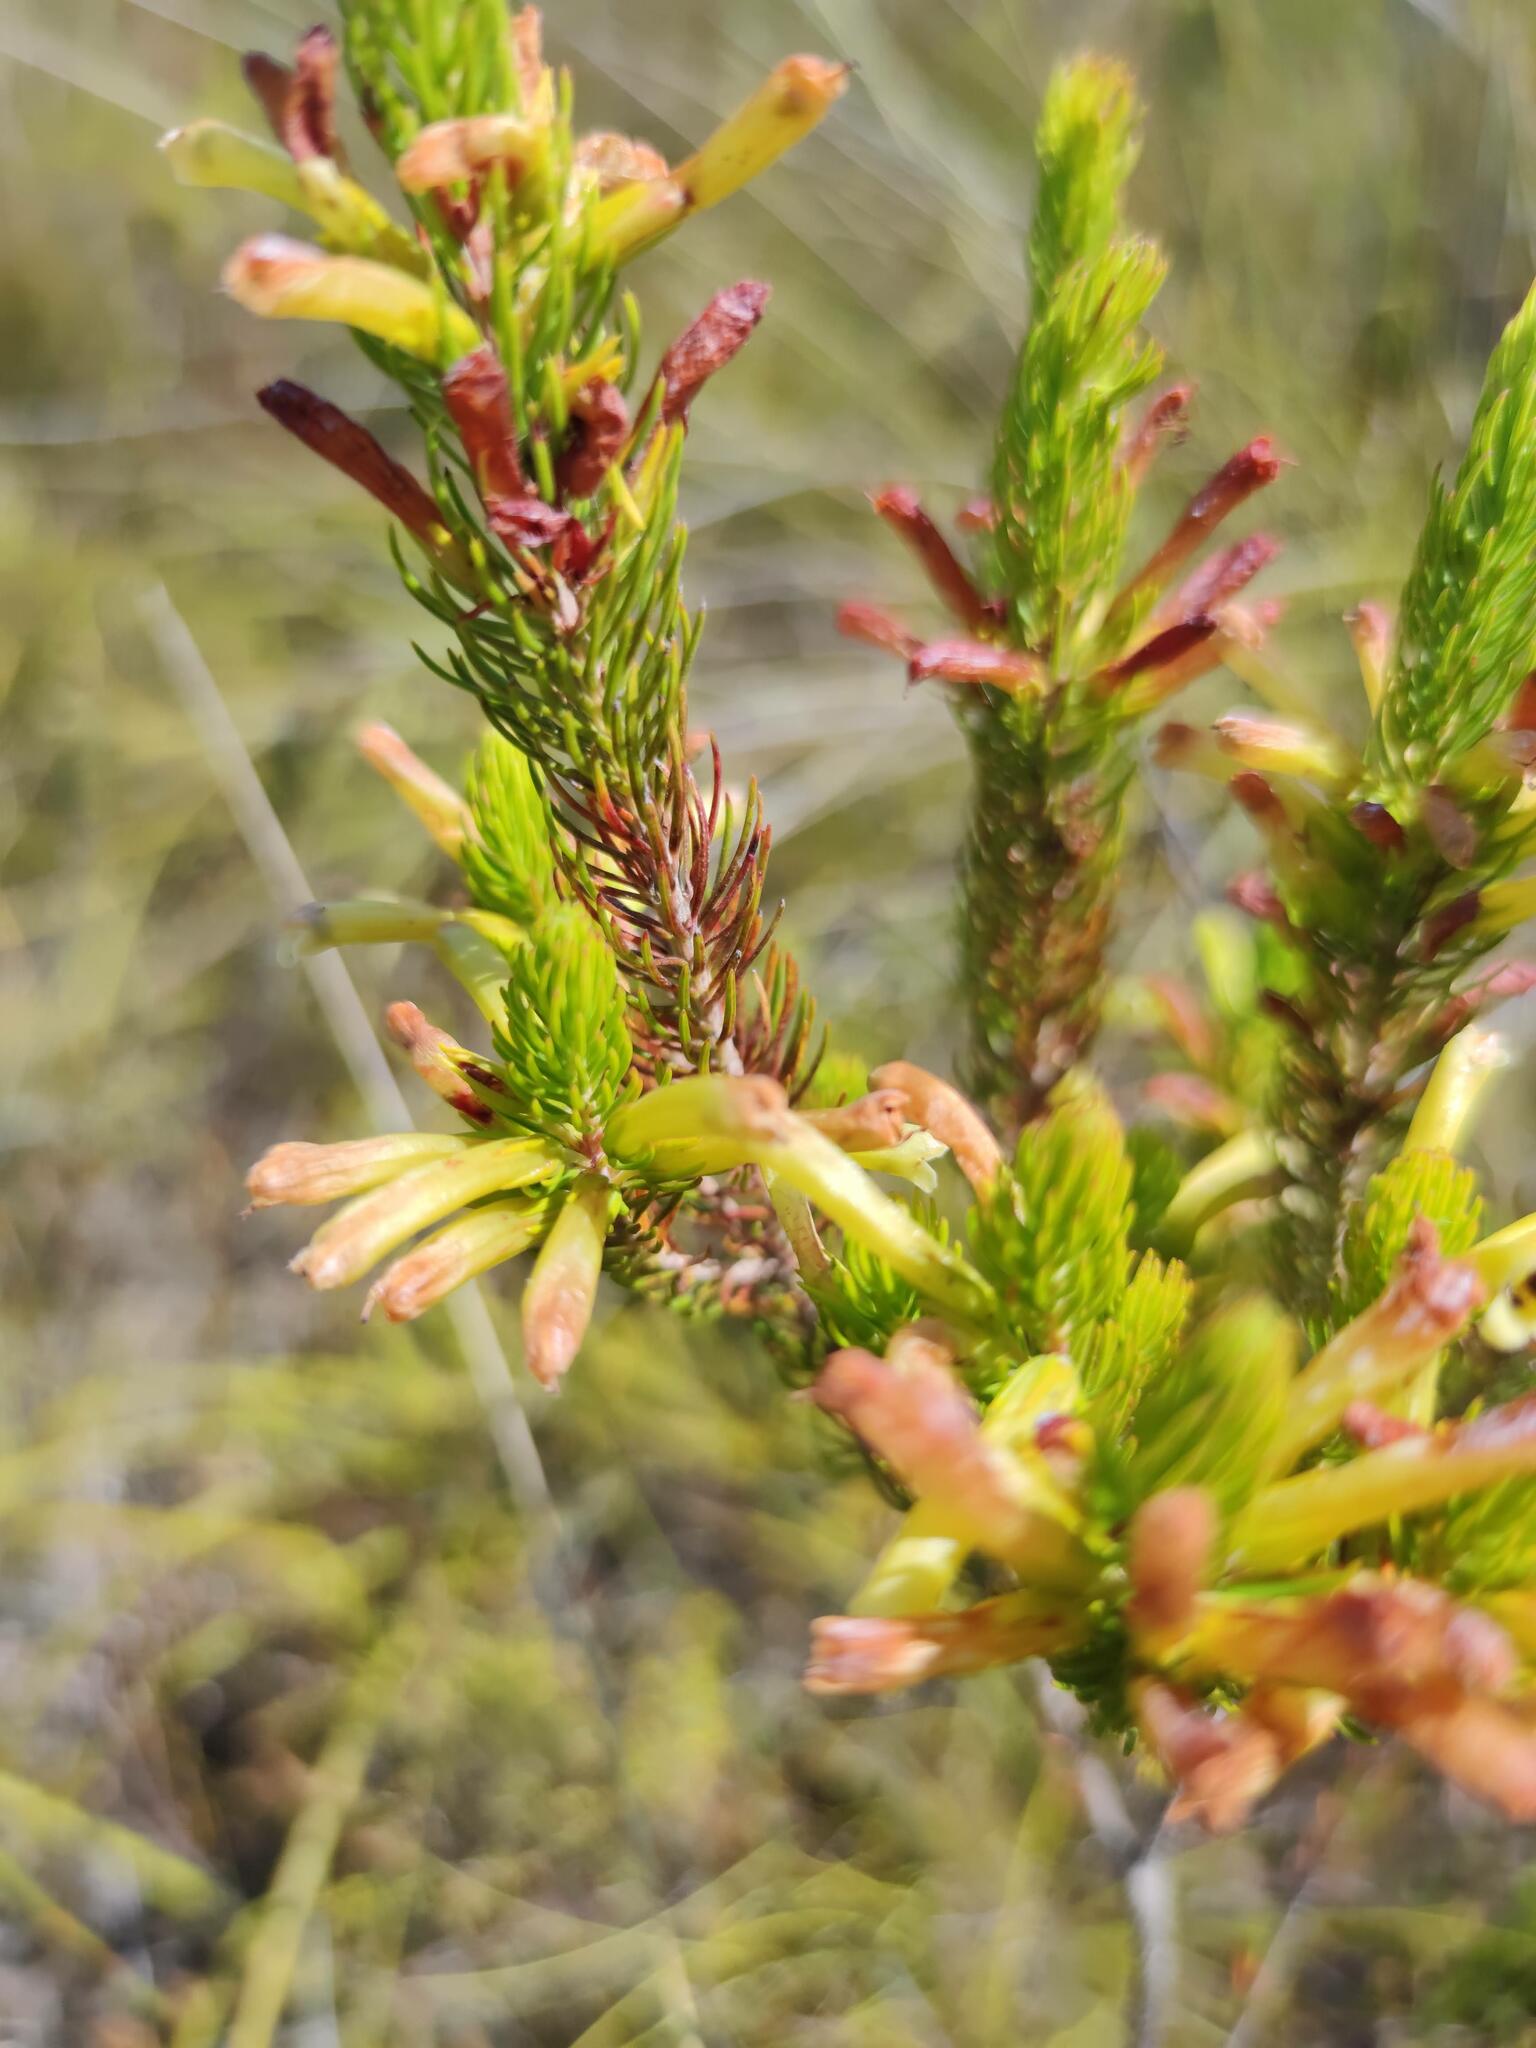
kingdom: Plantae
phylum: Tracheophyta
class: Magnoliopsida
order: Ericales
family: Ericaceae
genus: Erica
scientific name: Erica viscaria
